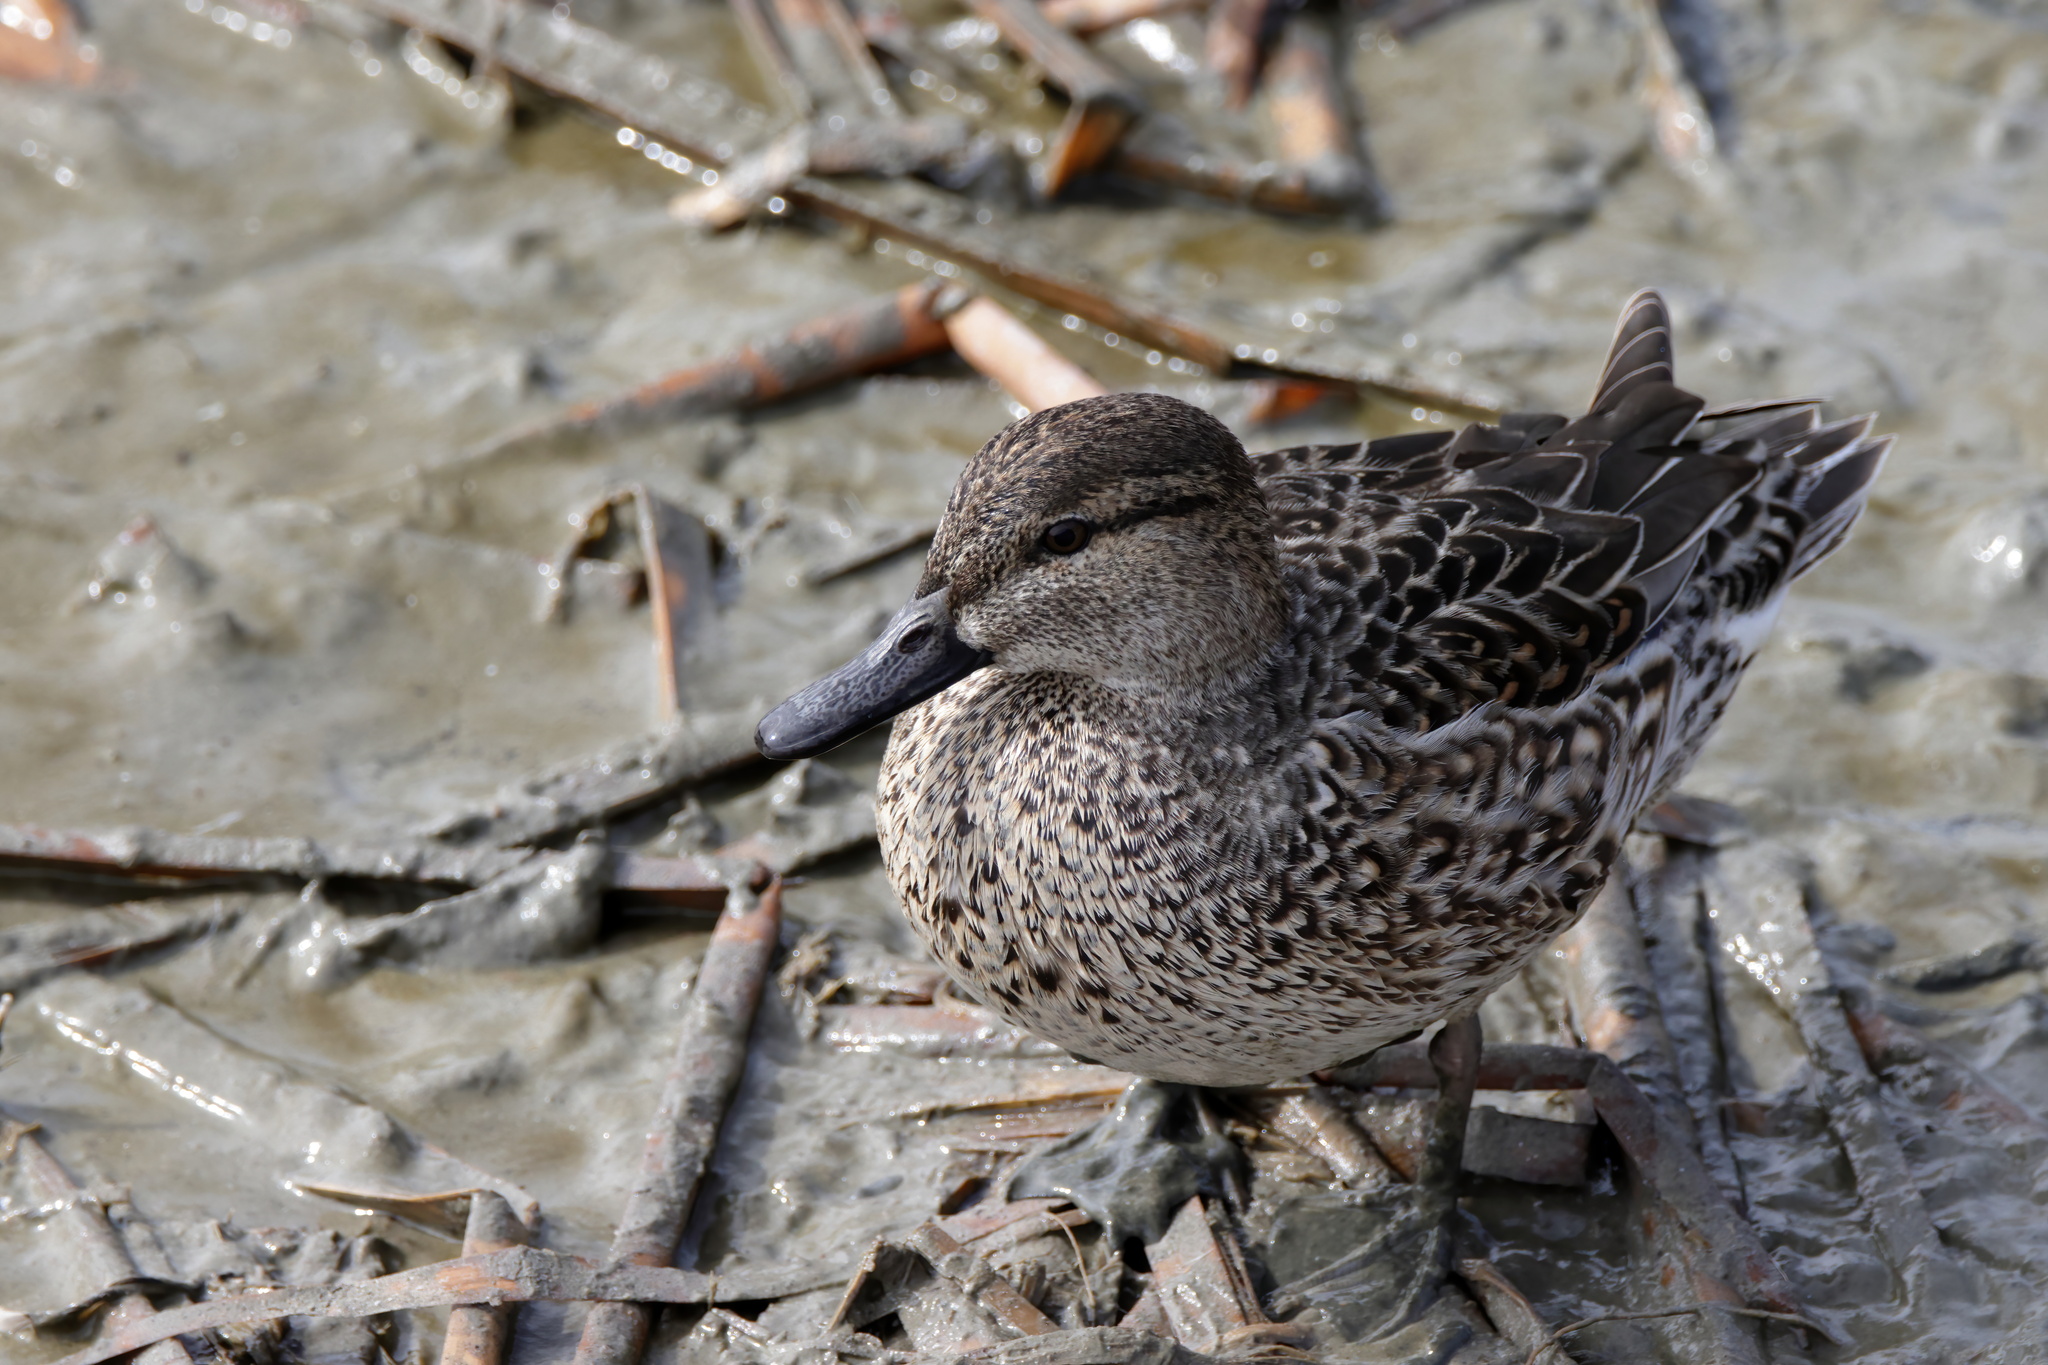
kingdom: Animalia
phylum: Chordata
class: Aves
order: Anseriformes
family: Anatidae
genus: Anas
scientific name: Anas crecca
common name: Eurasian teal
